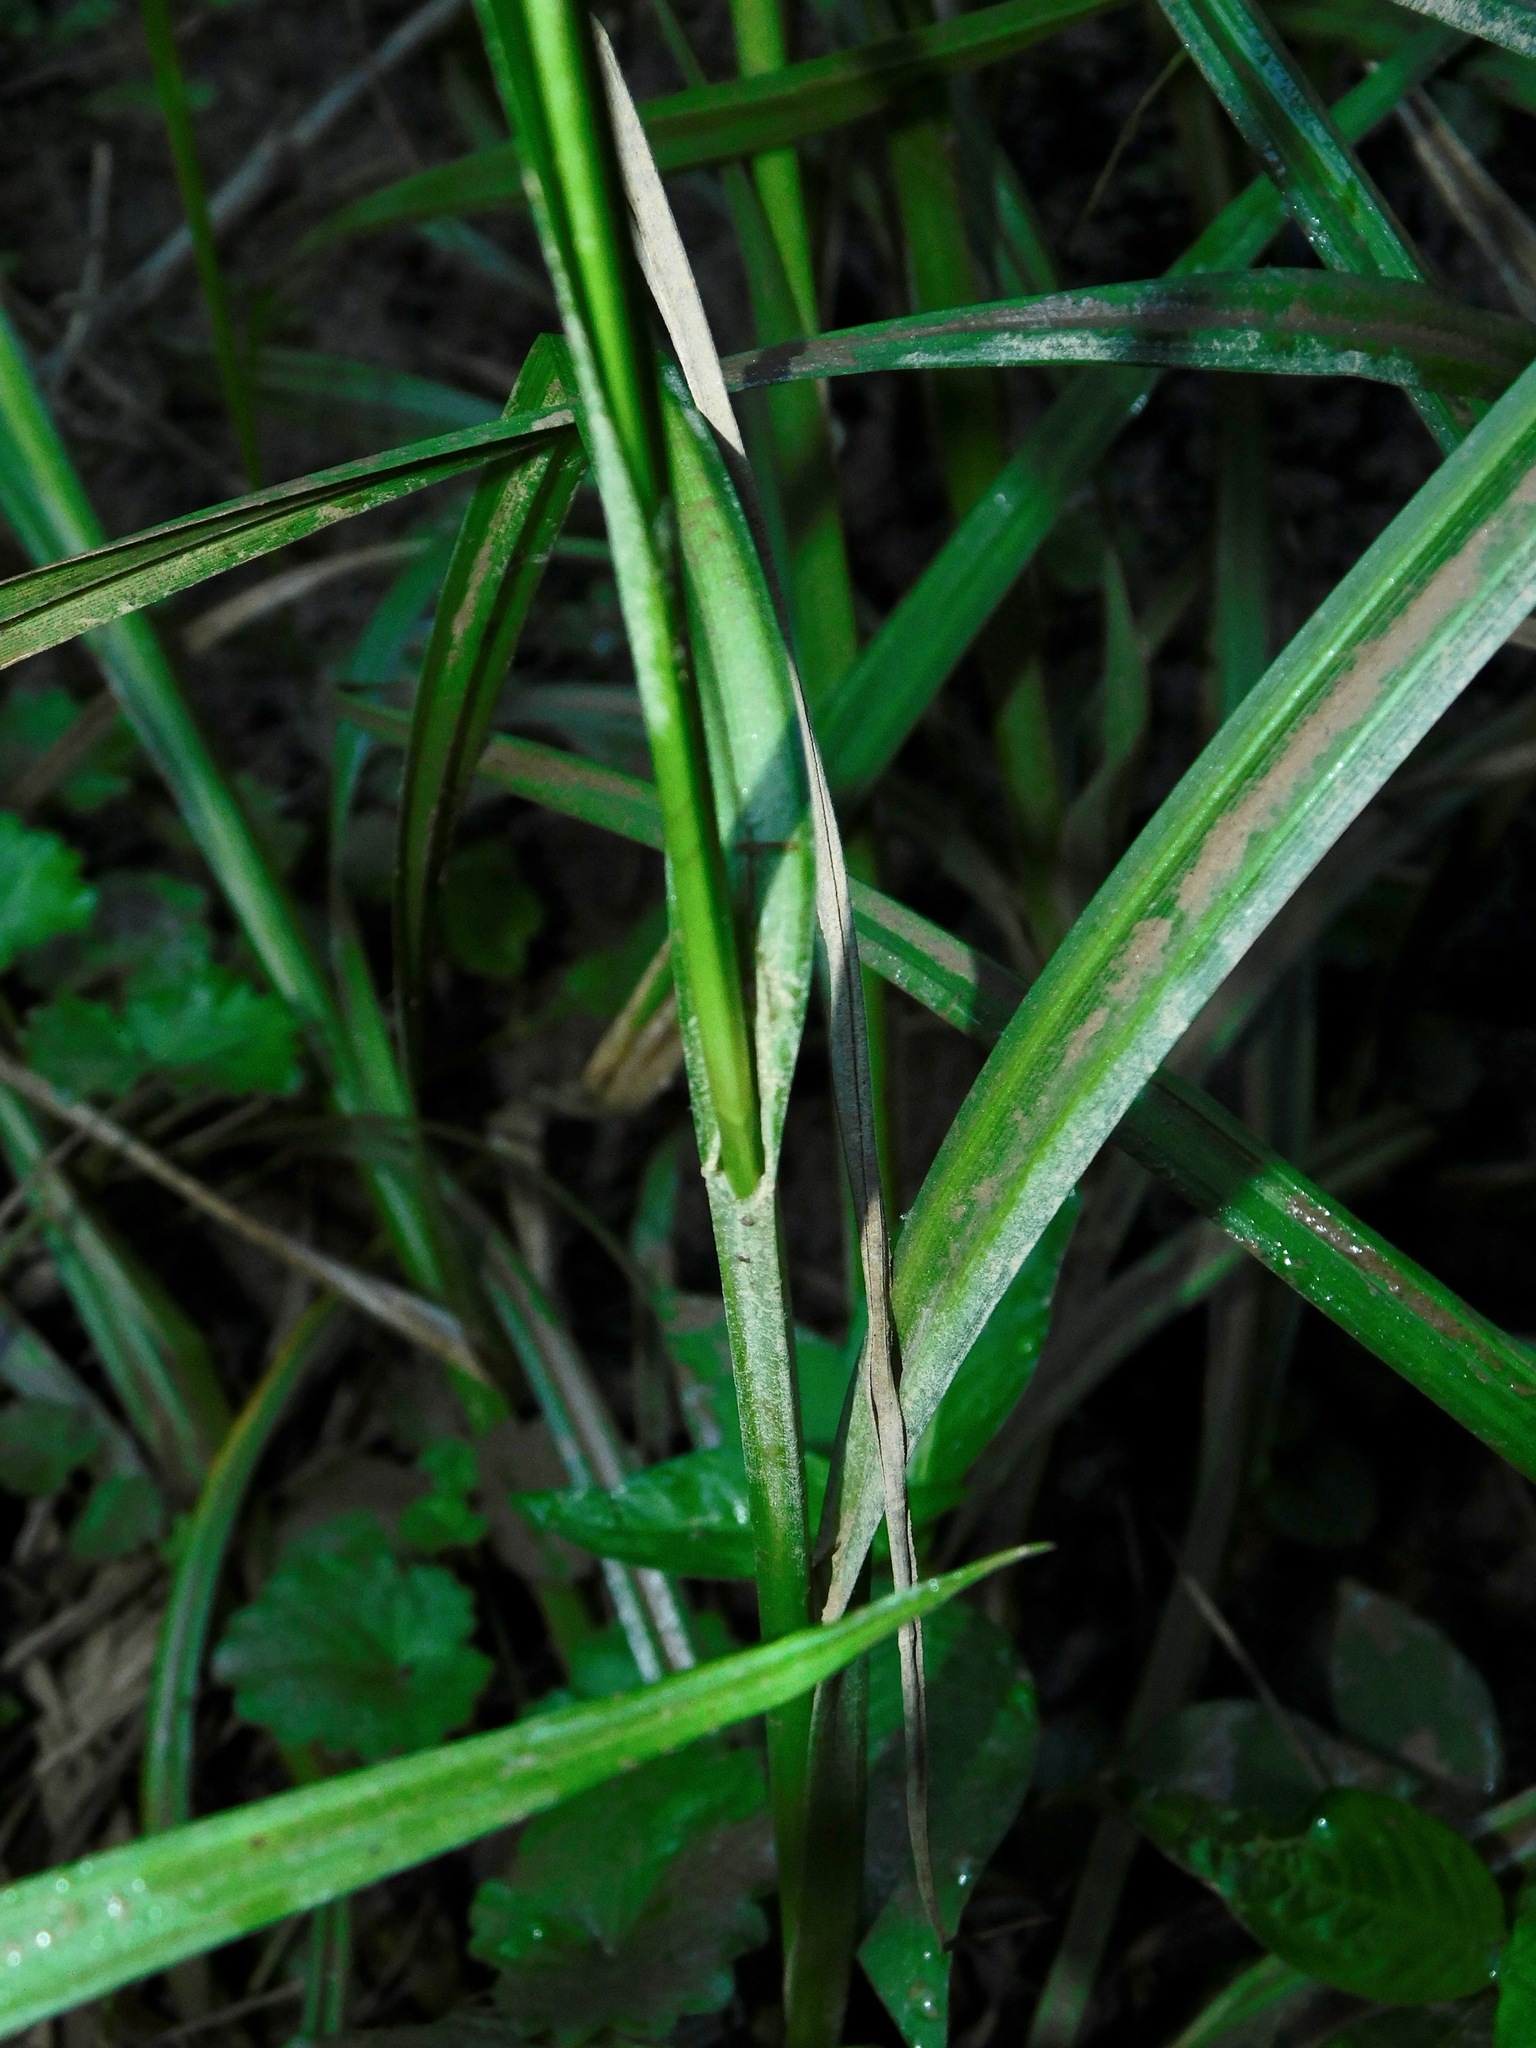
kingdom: Plantae
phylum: Tracheophyta
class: Liliopsida
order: Poales
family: Cyperaceae
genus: Carex
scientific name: Carex lurida
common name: Sallow sedge
